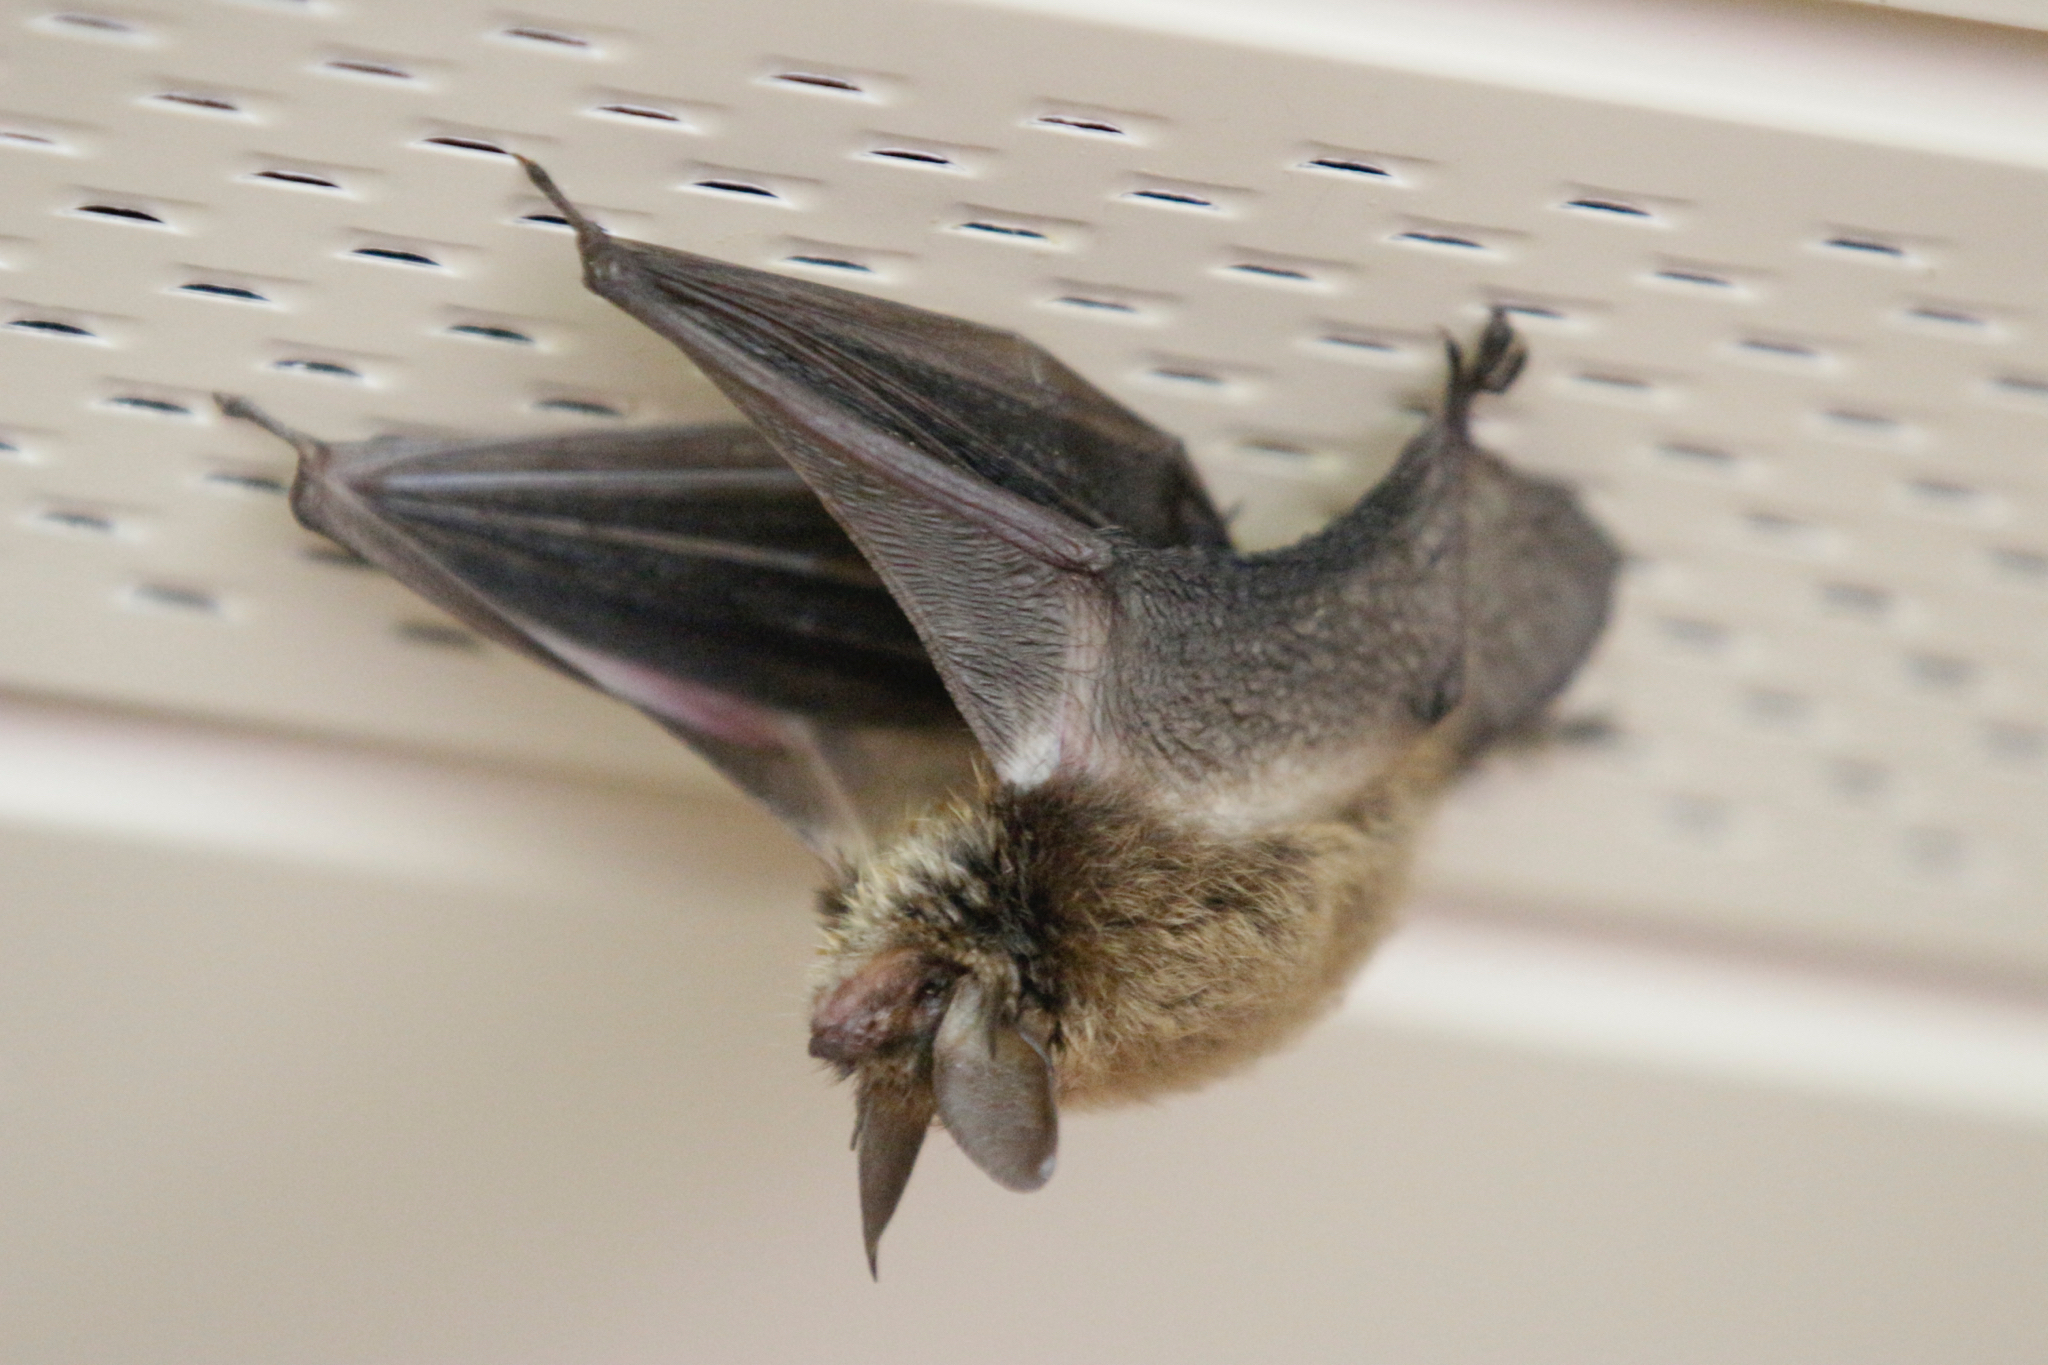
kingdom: Animalia
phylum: Chordata
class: Mammalia
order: Chiroptera
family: Vespertilionidae
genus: Myotis
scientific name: Myotis septentrionalis
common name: Northern myotis
